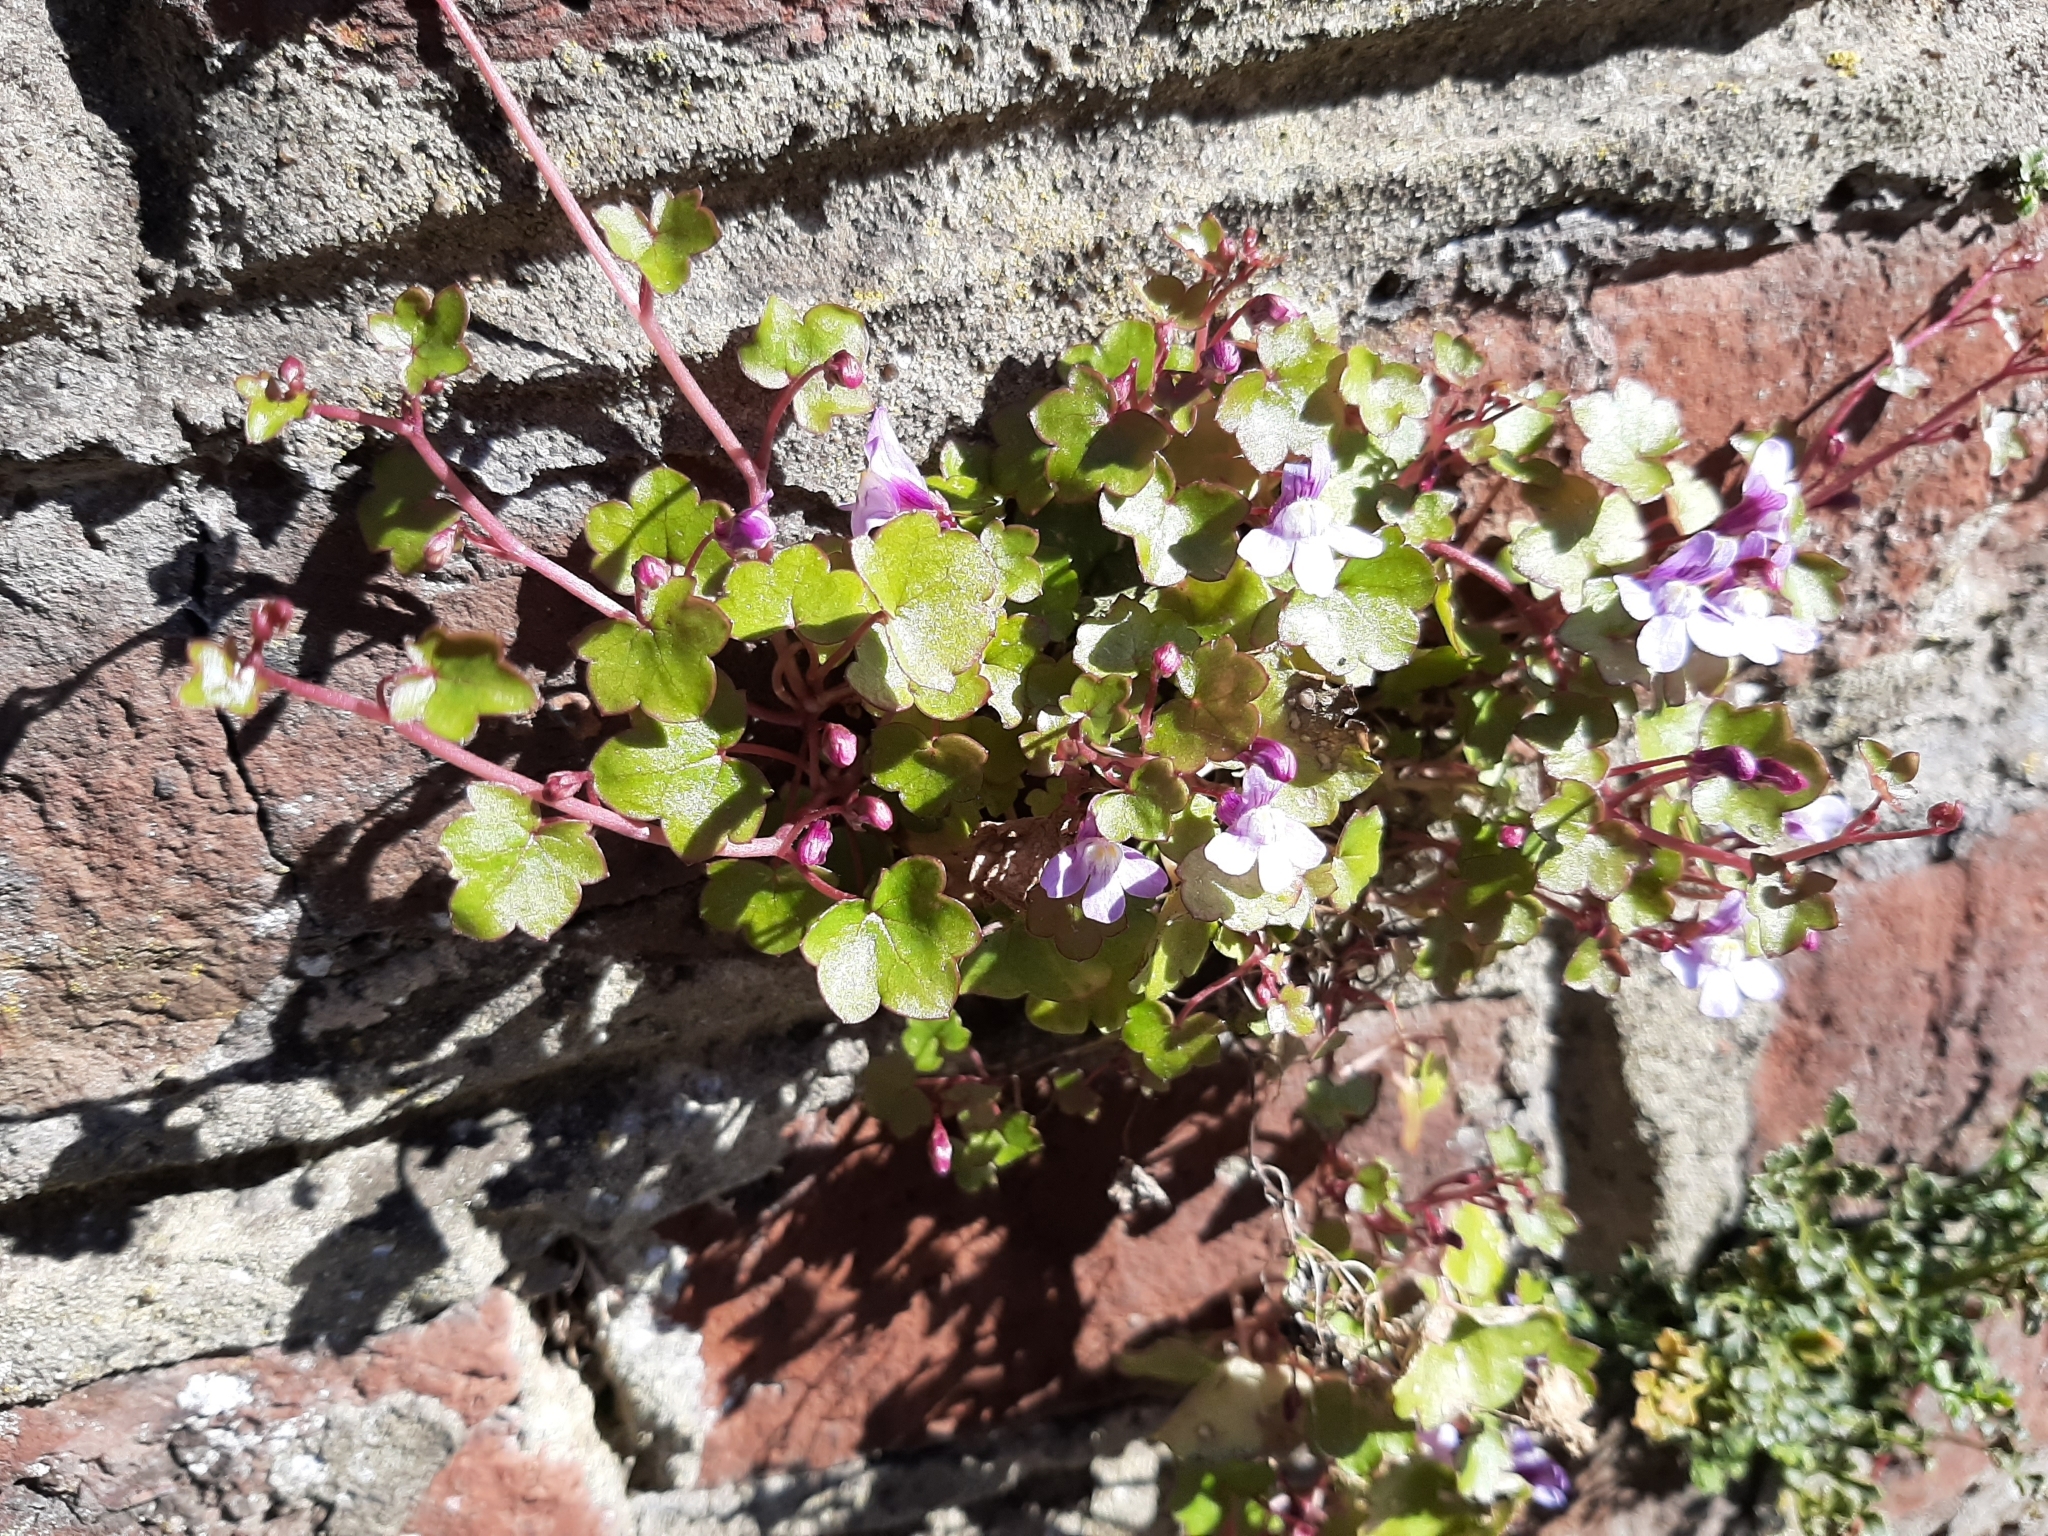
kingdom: Plantae
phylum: Tracheophyta
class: Magnoliopsida
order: Lamiales
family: Plantaginaceae
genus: Cymbalaria
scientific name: Cymbalaria muralis
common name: Ivy-leaved toadflax
